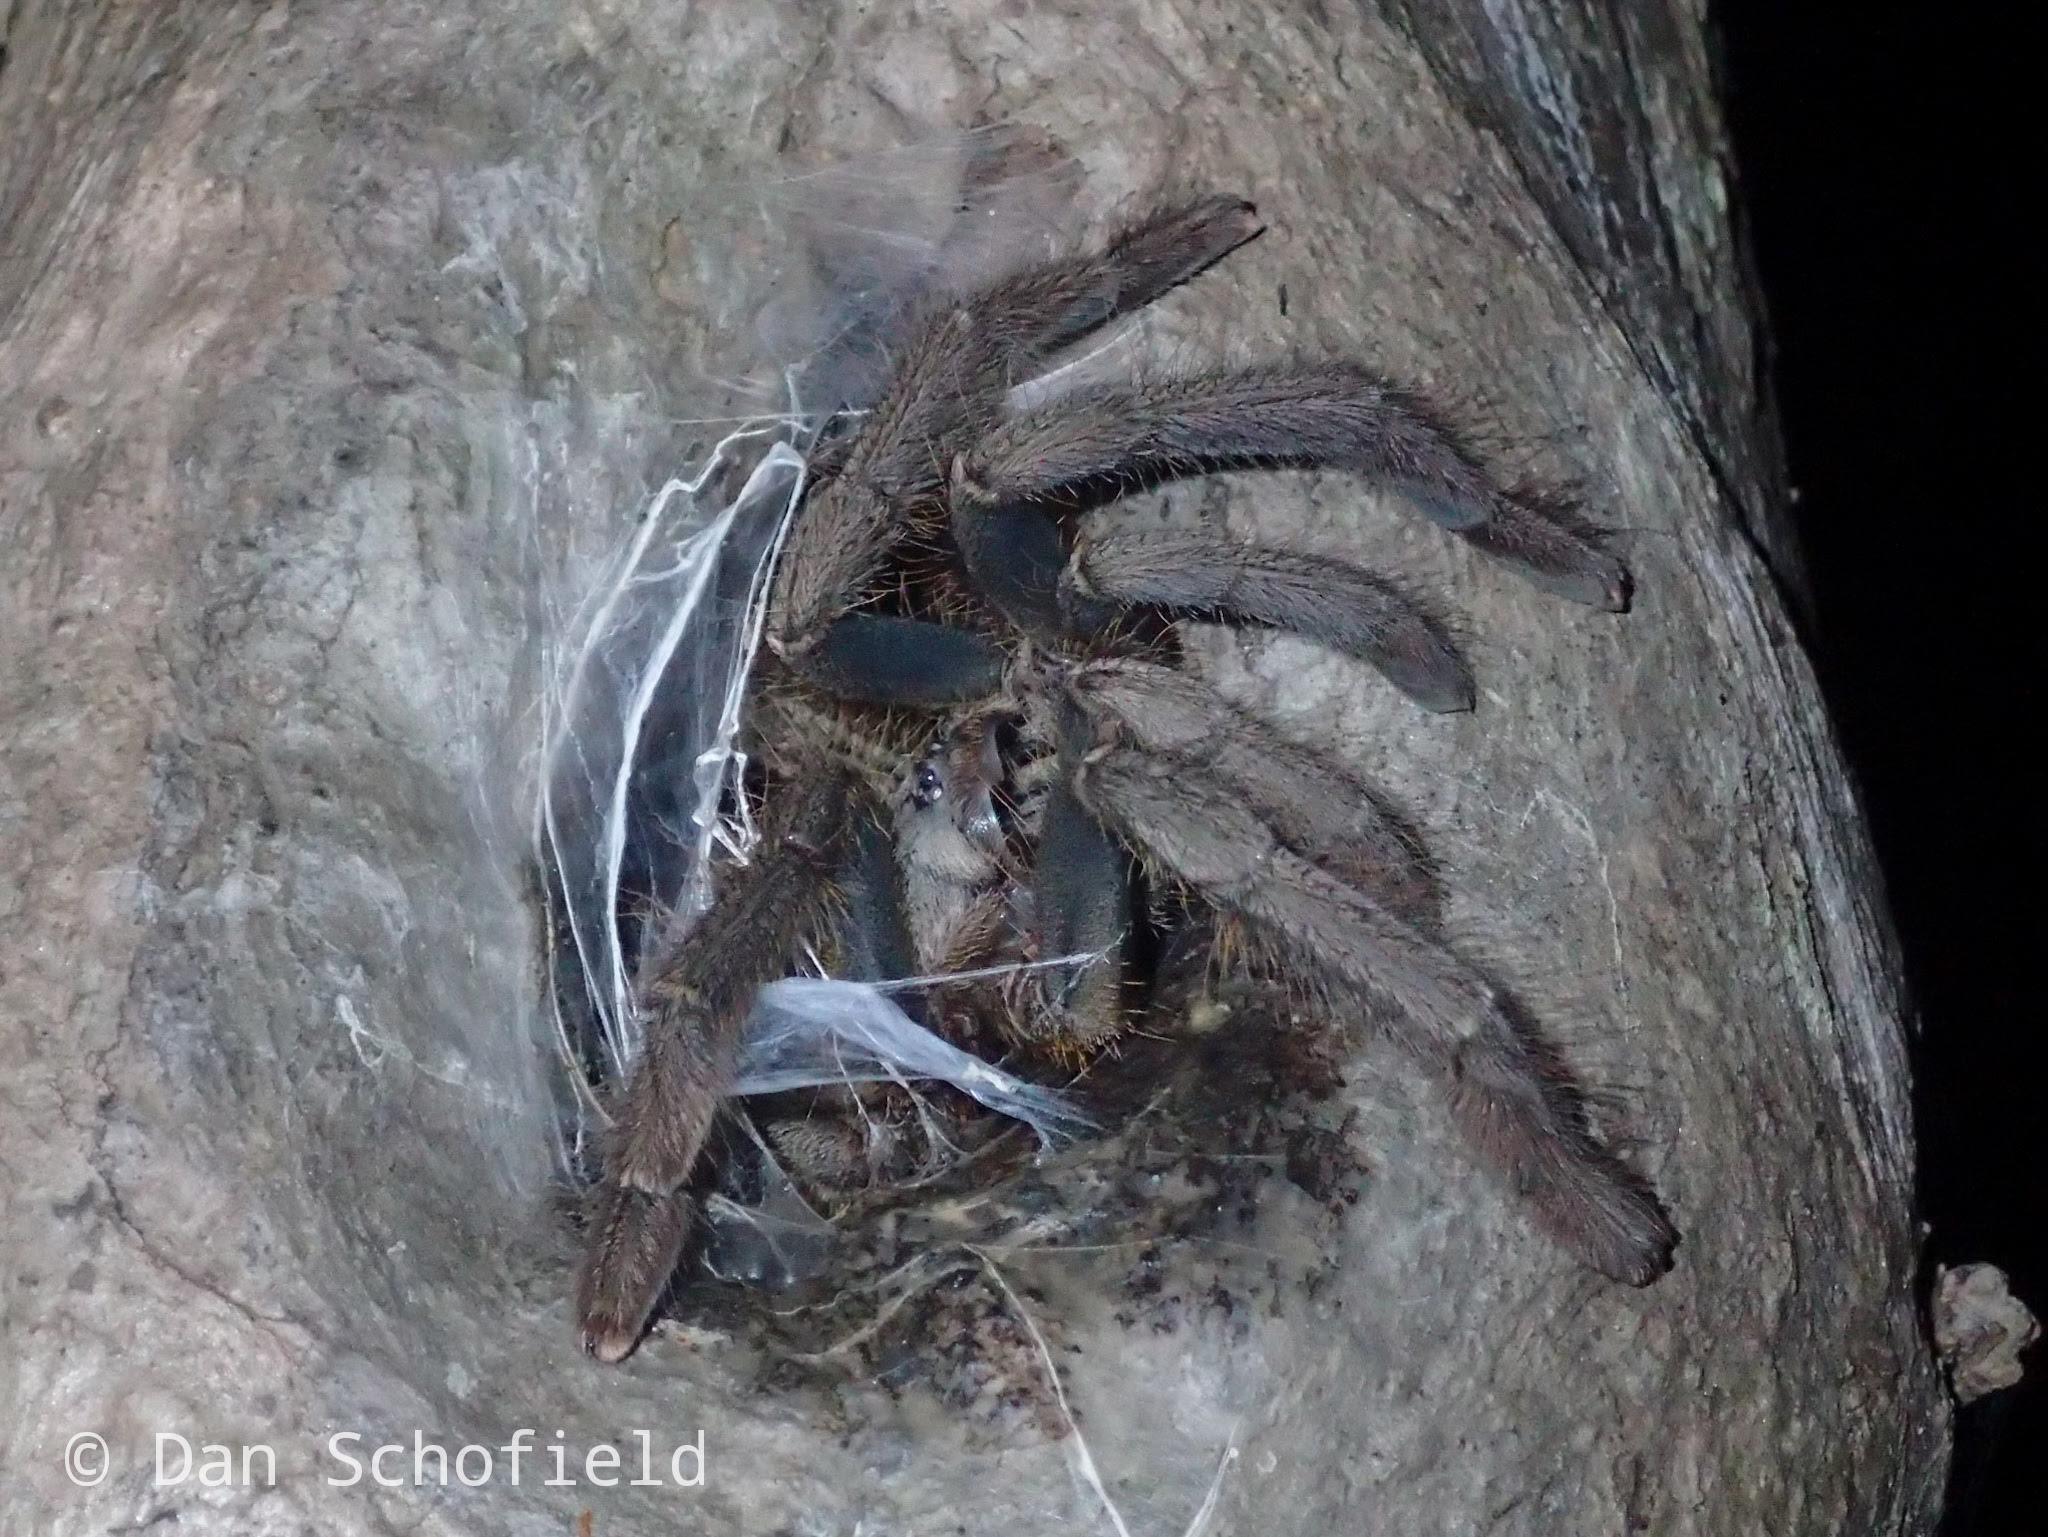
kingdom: Animalia
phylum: Arthropoda
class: Arachnida
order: Araneae
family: Theraphosidae
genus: Lampropelma
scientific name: Lampropelma carpenteri
